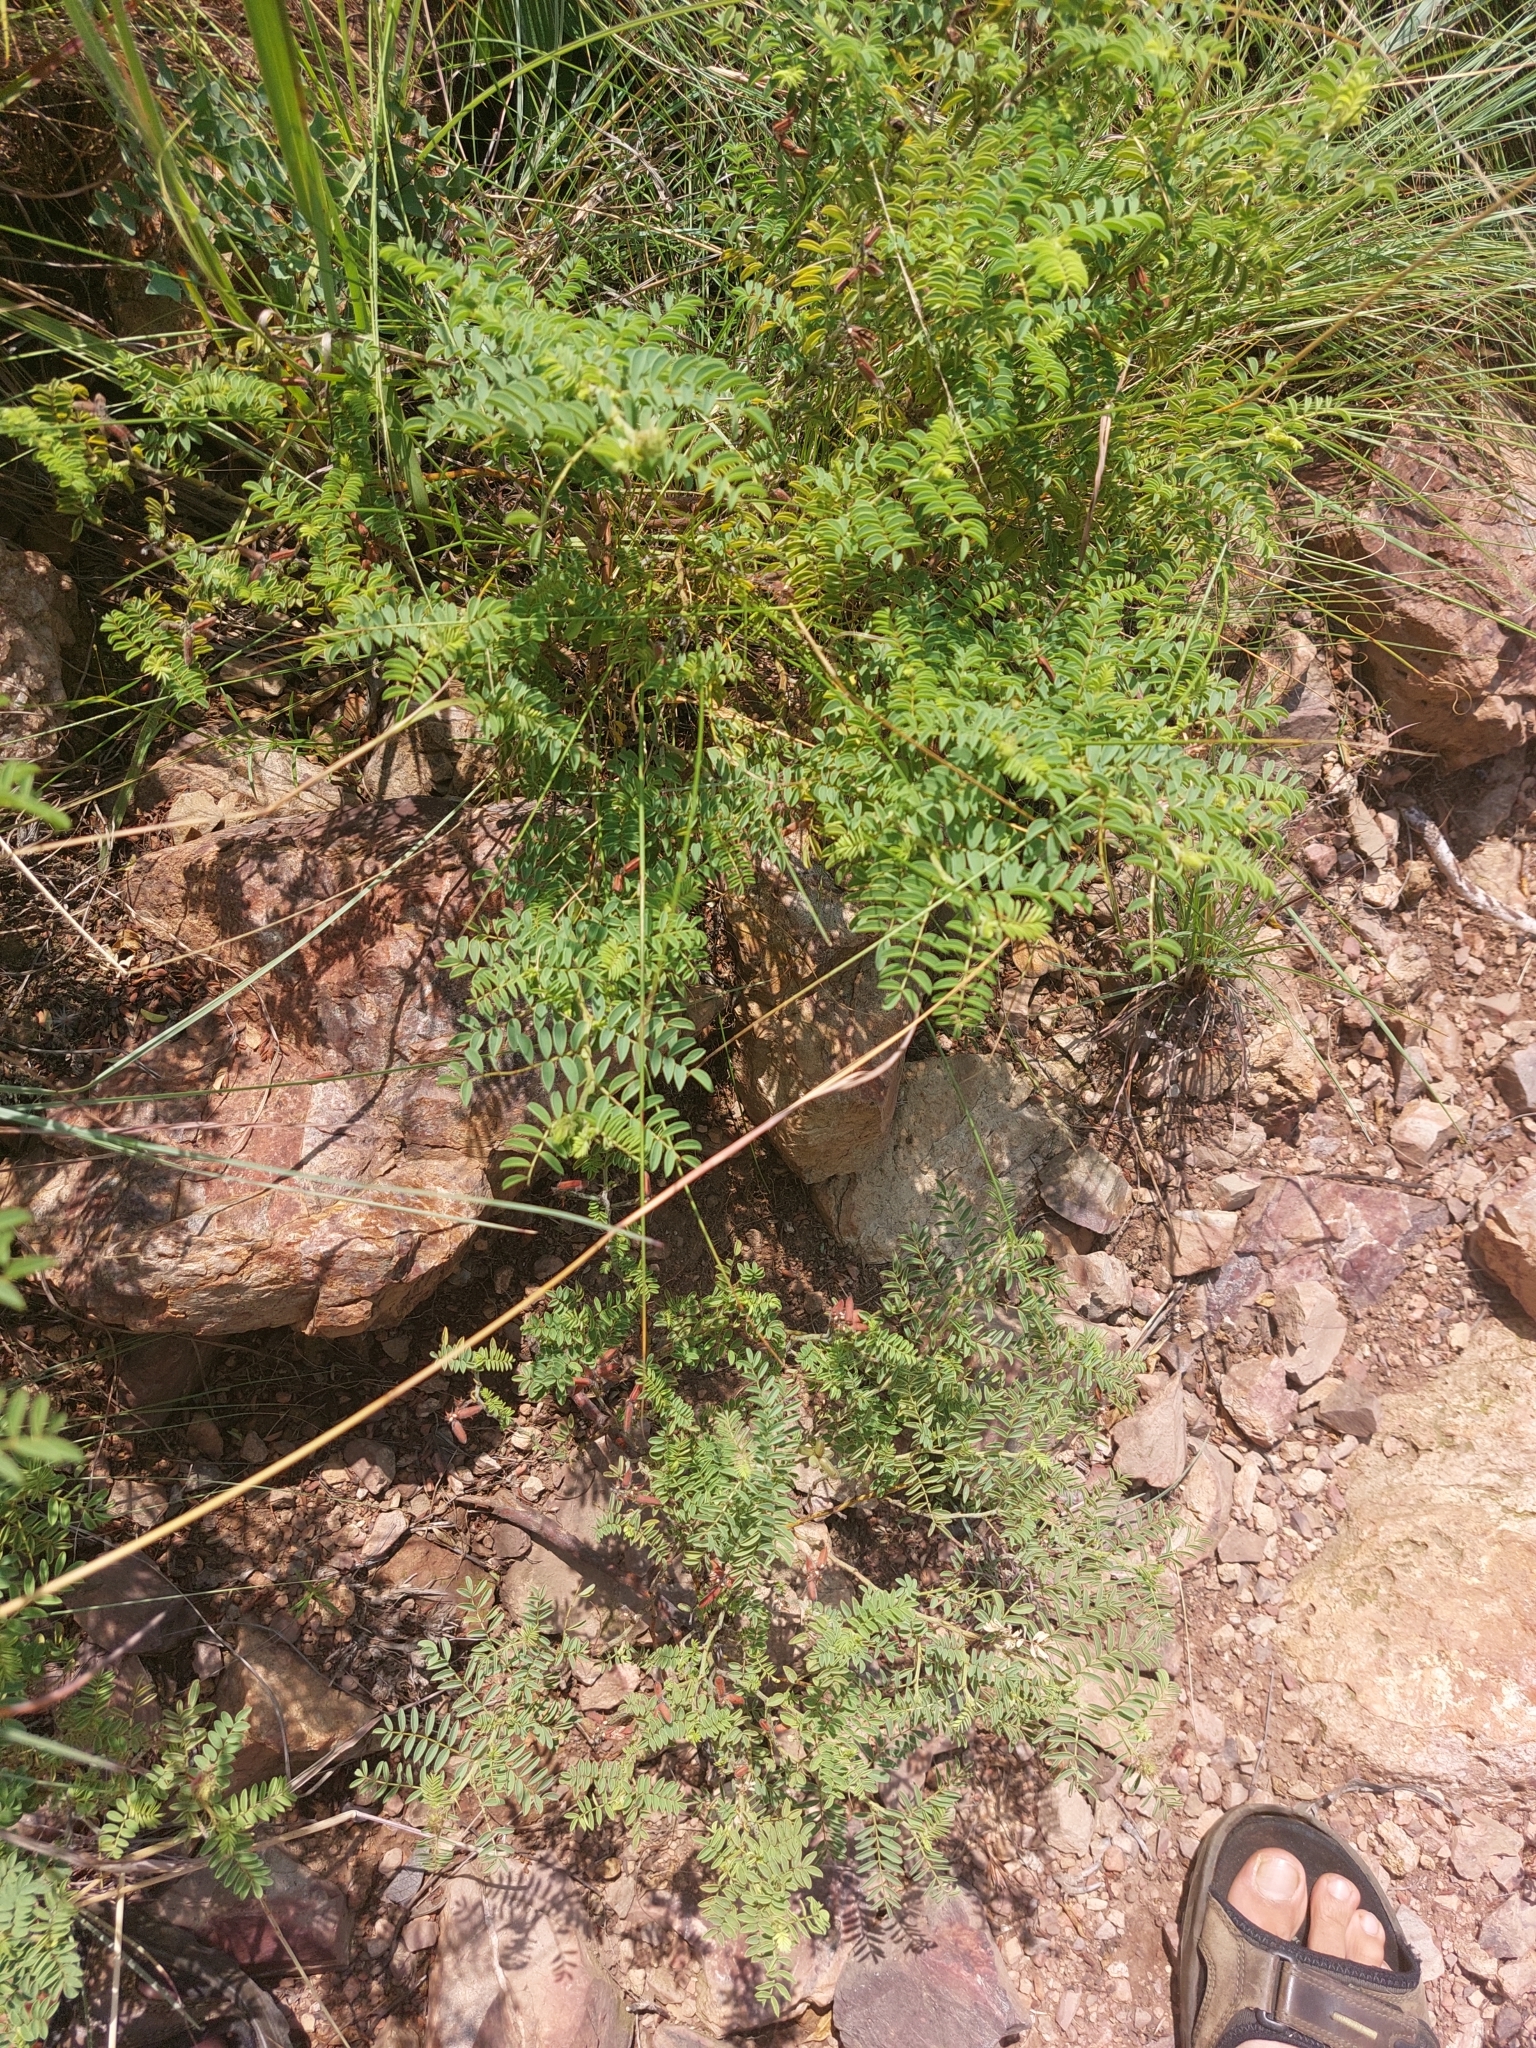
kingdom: Plantae
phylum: Tracheophyta
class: Magnoliopsida
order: Fabales
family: Fabaceae
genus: Indigofera
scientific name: Indigofera comosa
